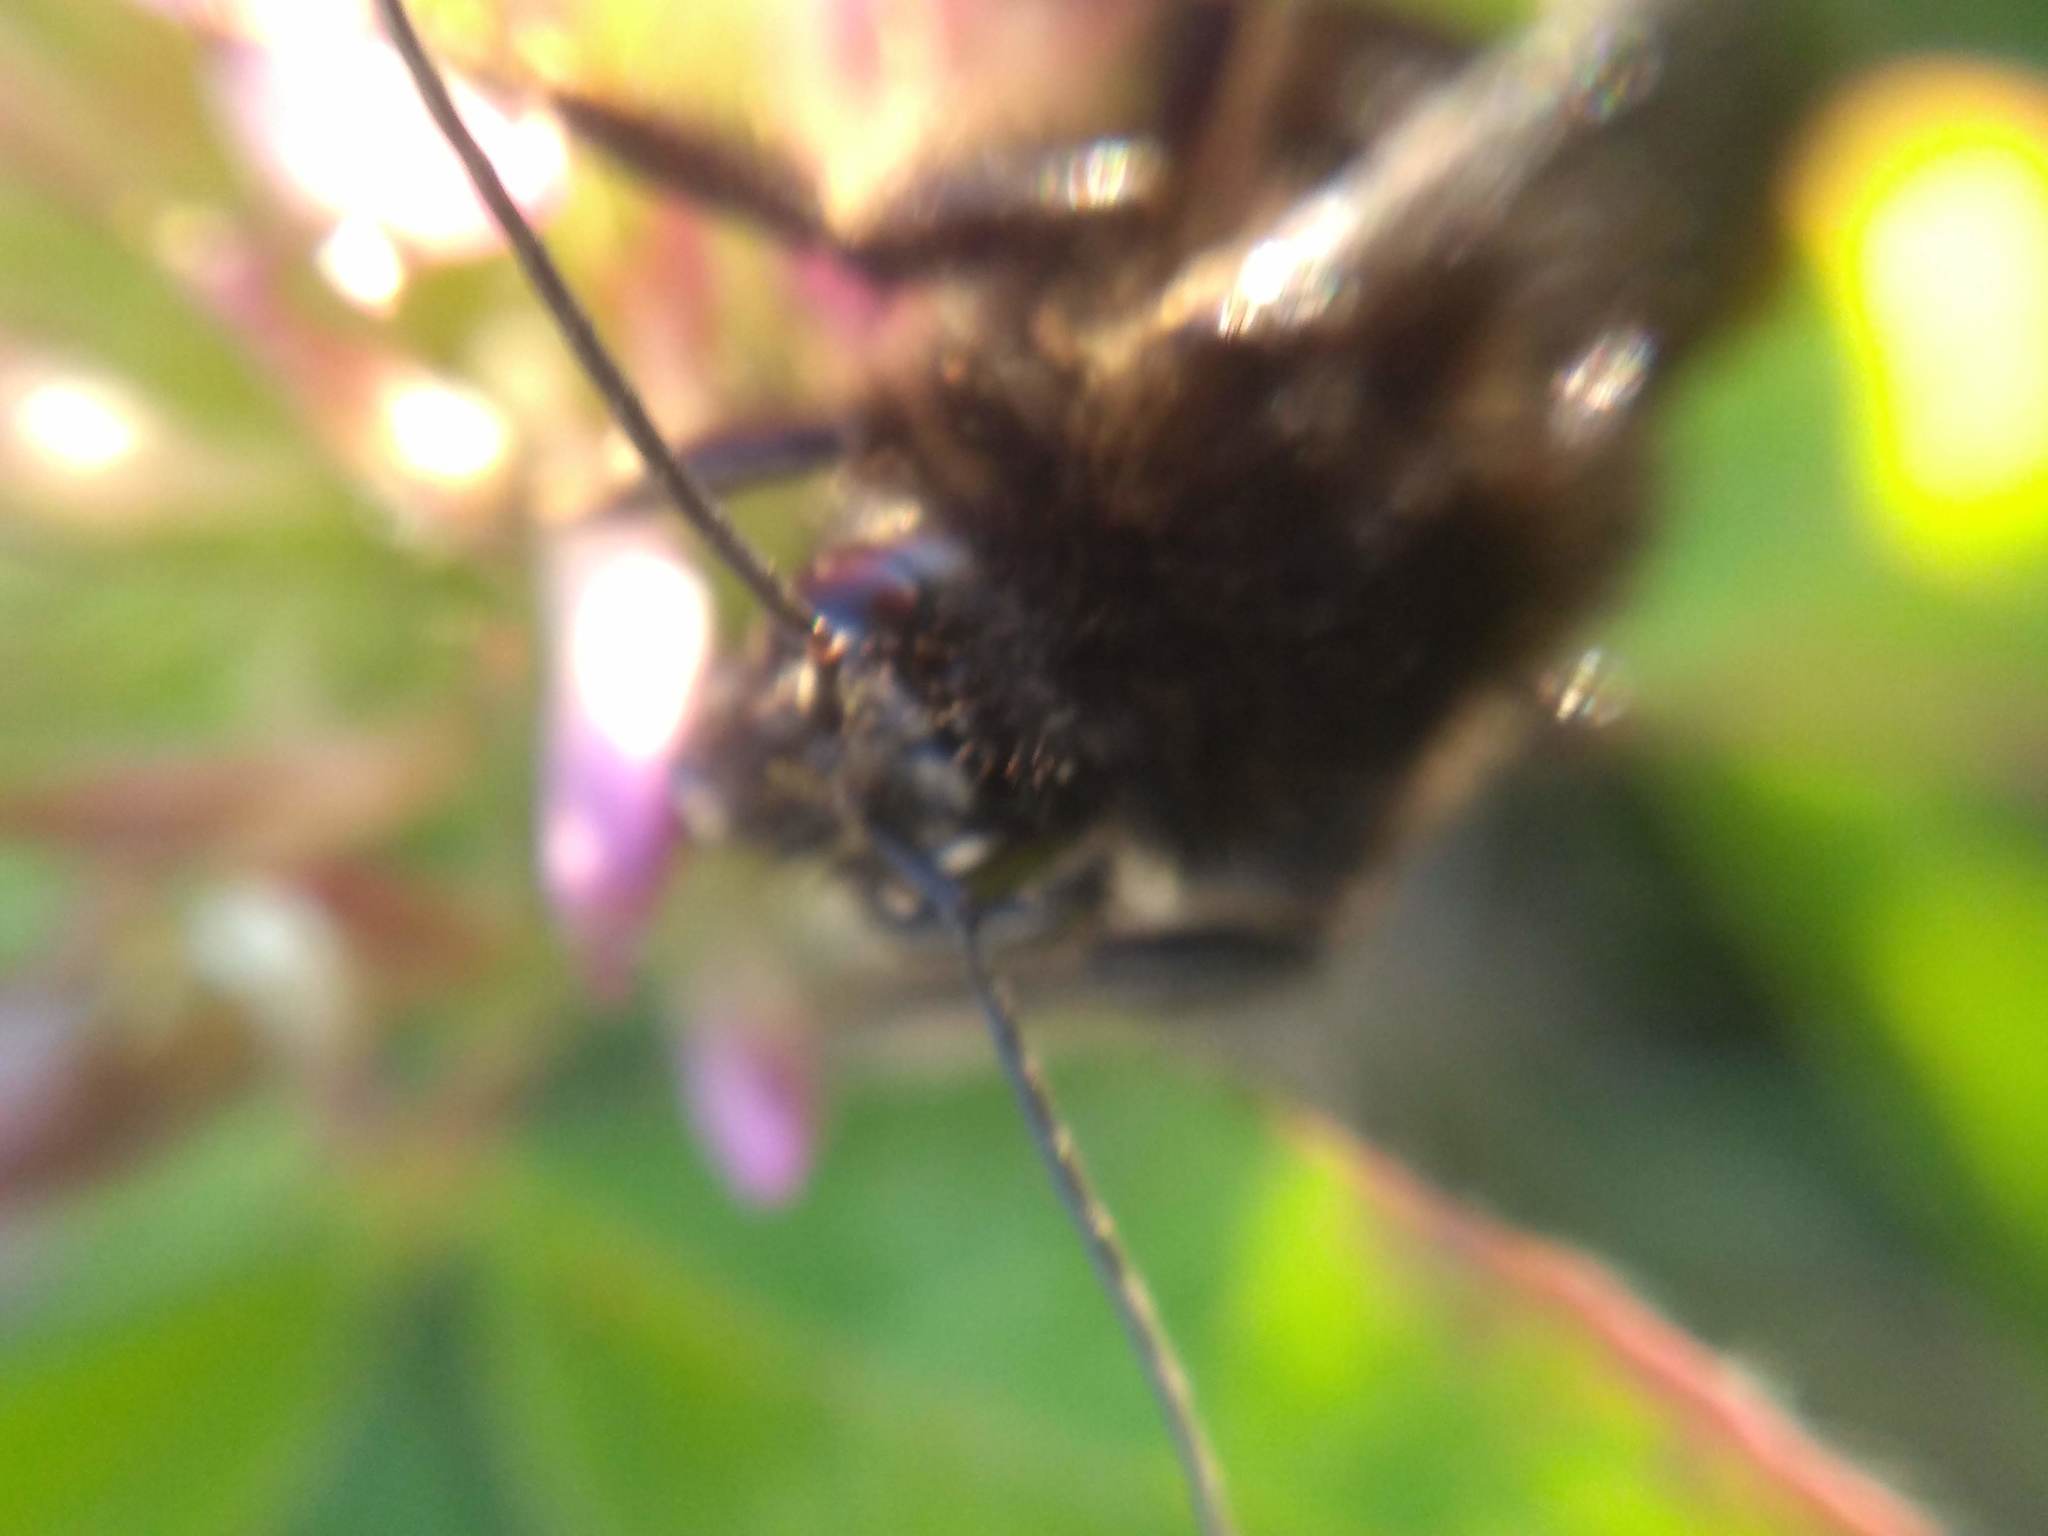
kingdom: Animalia
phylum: Arthropoda
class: Insecta
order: Hymenoptera
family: Apidae
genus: Bombus
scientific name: Bombus pauloensis
